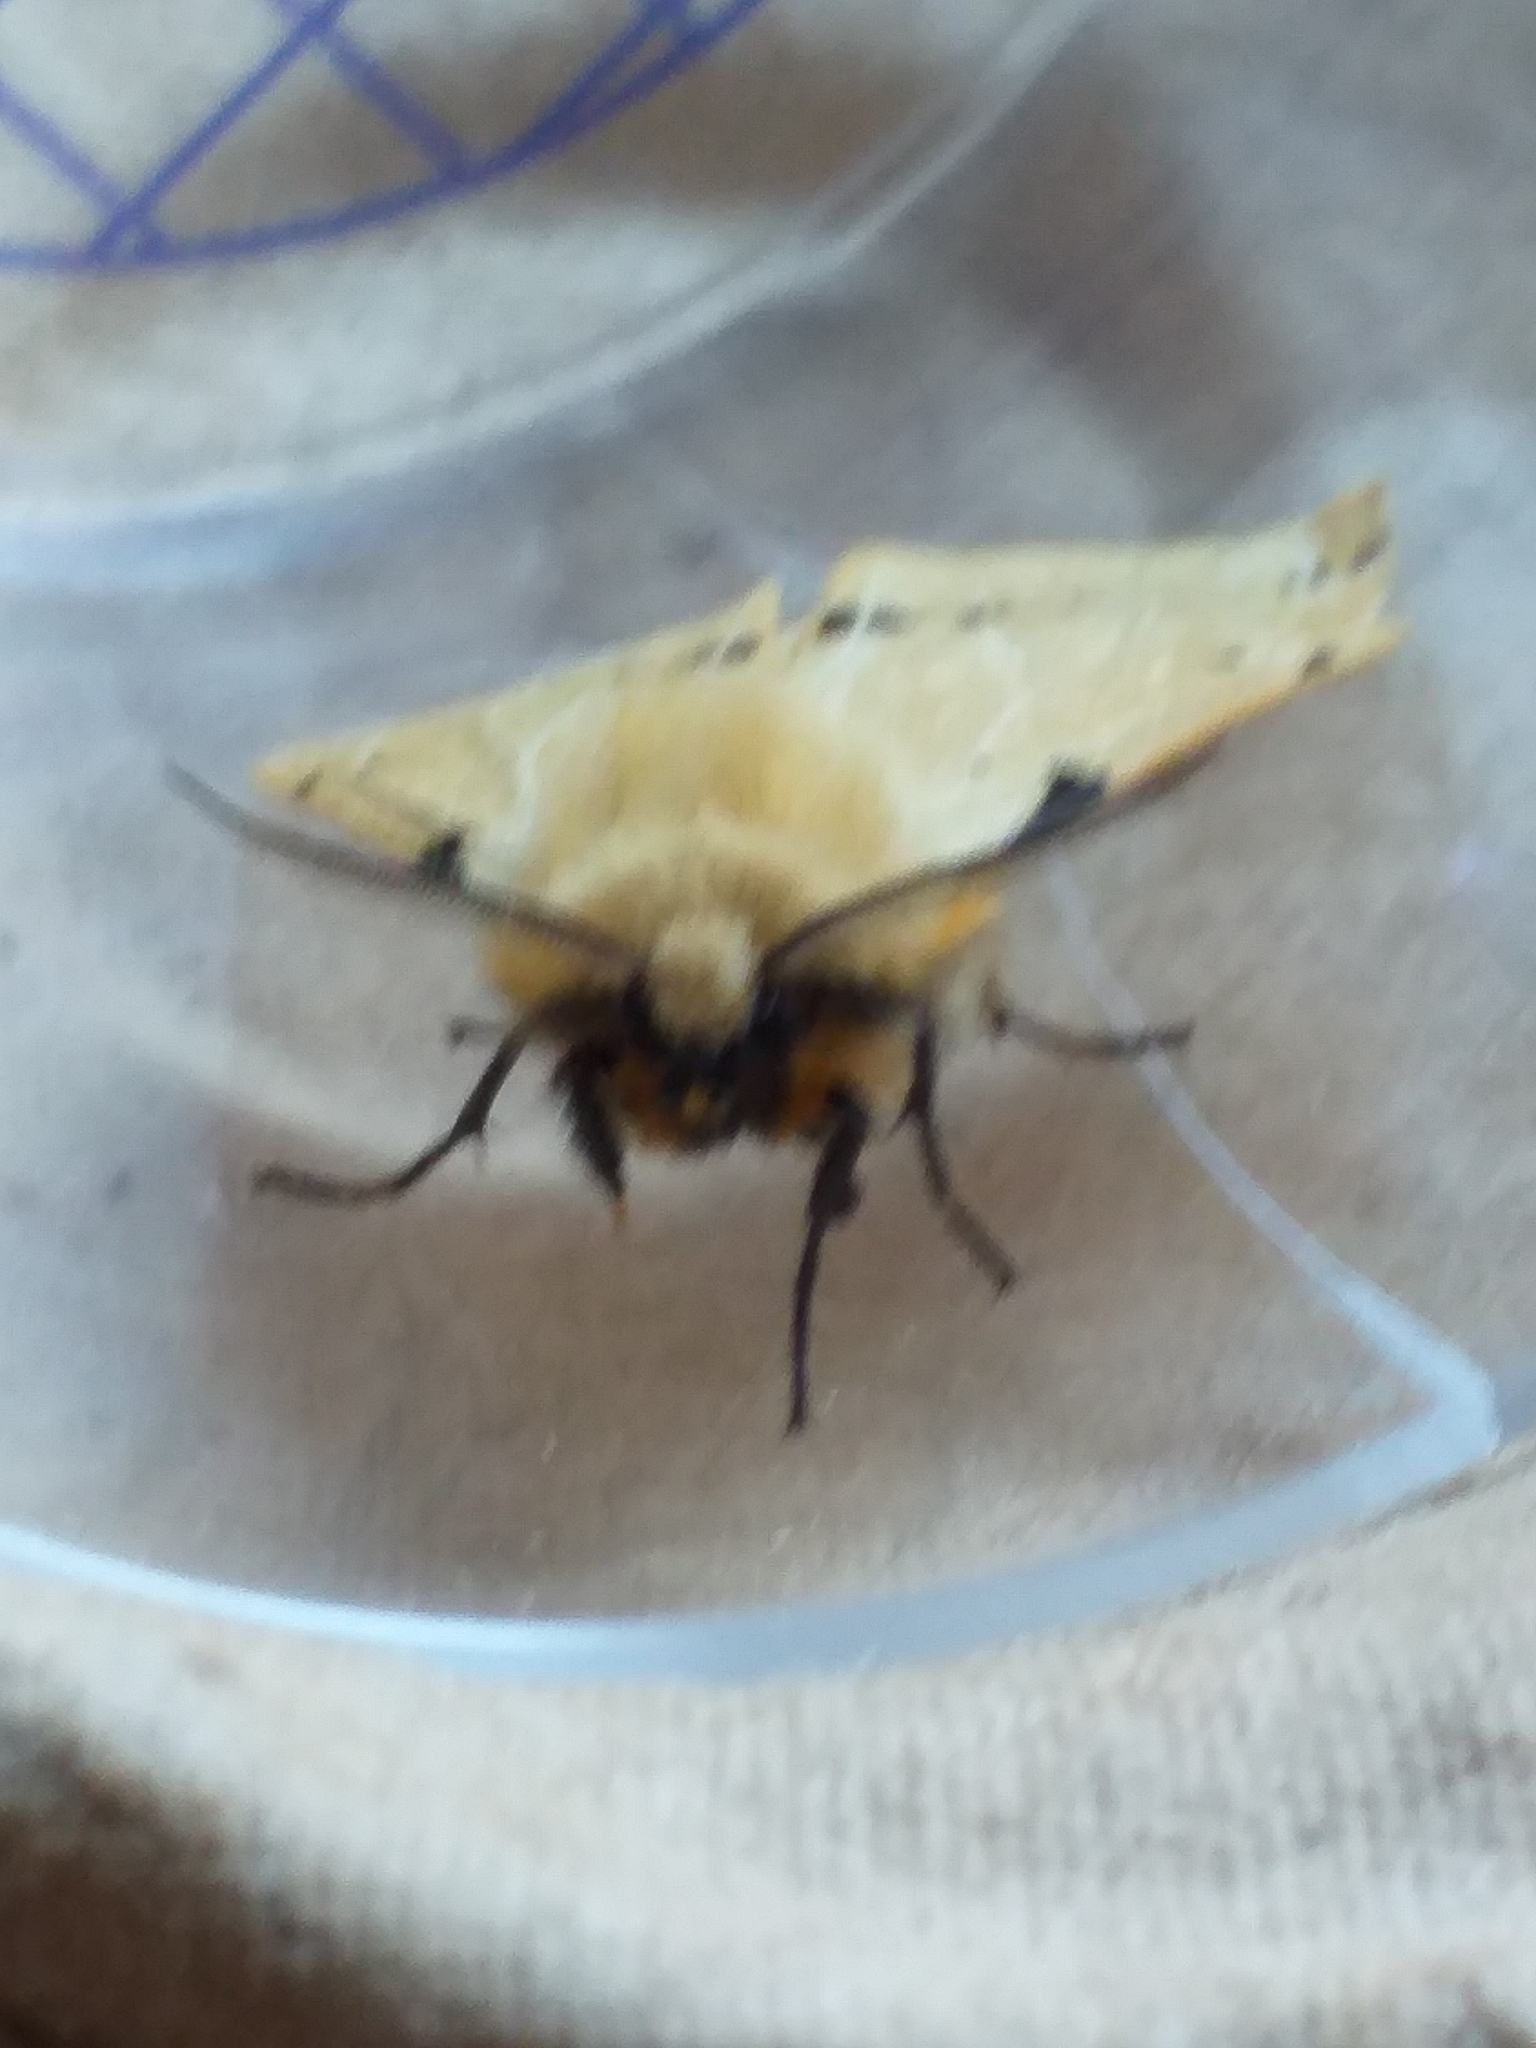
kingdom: Animalia
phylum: Arthropoda
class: Insecta
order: Lepidoptera
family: Erebidae
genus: Spilarctia
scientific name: Spilarctia lutea
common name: Buff ermine
